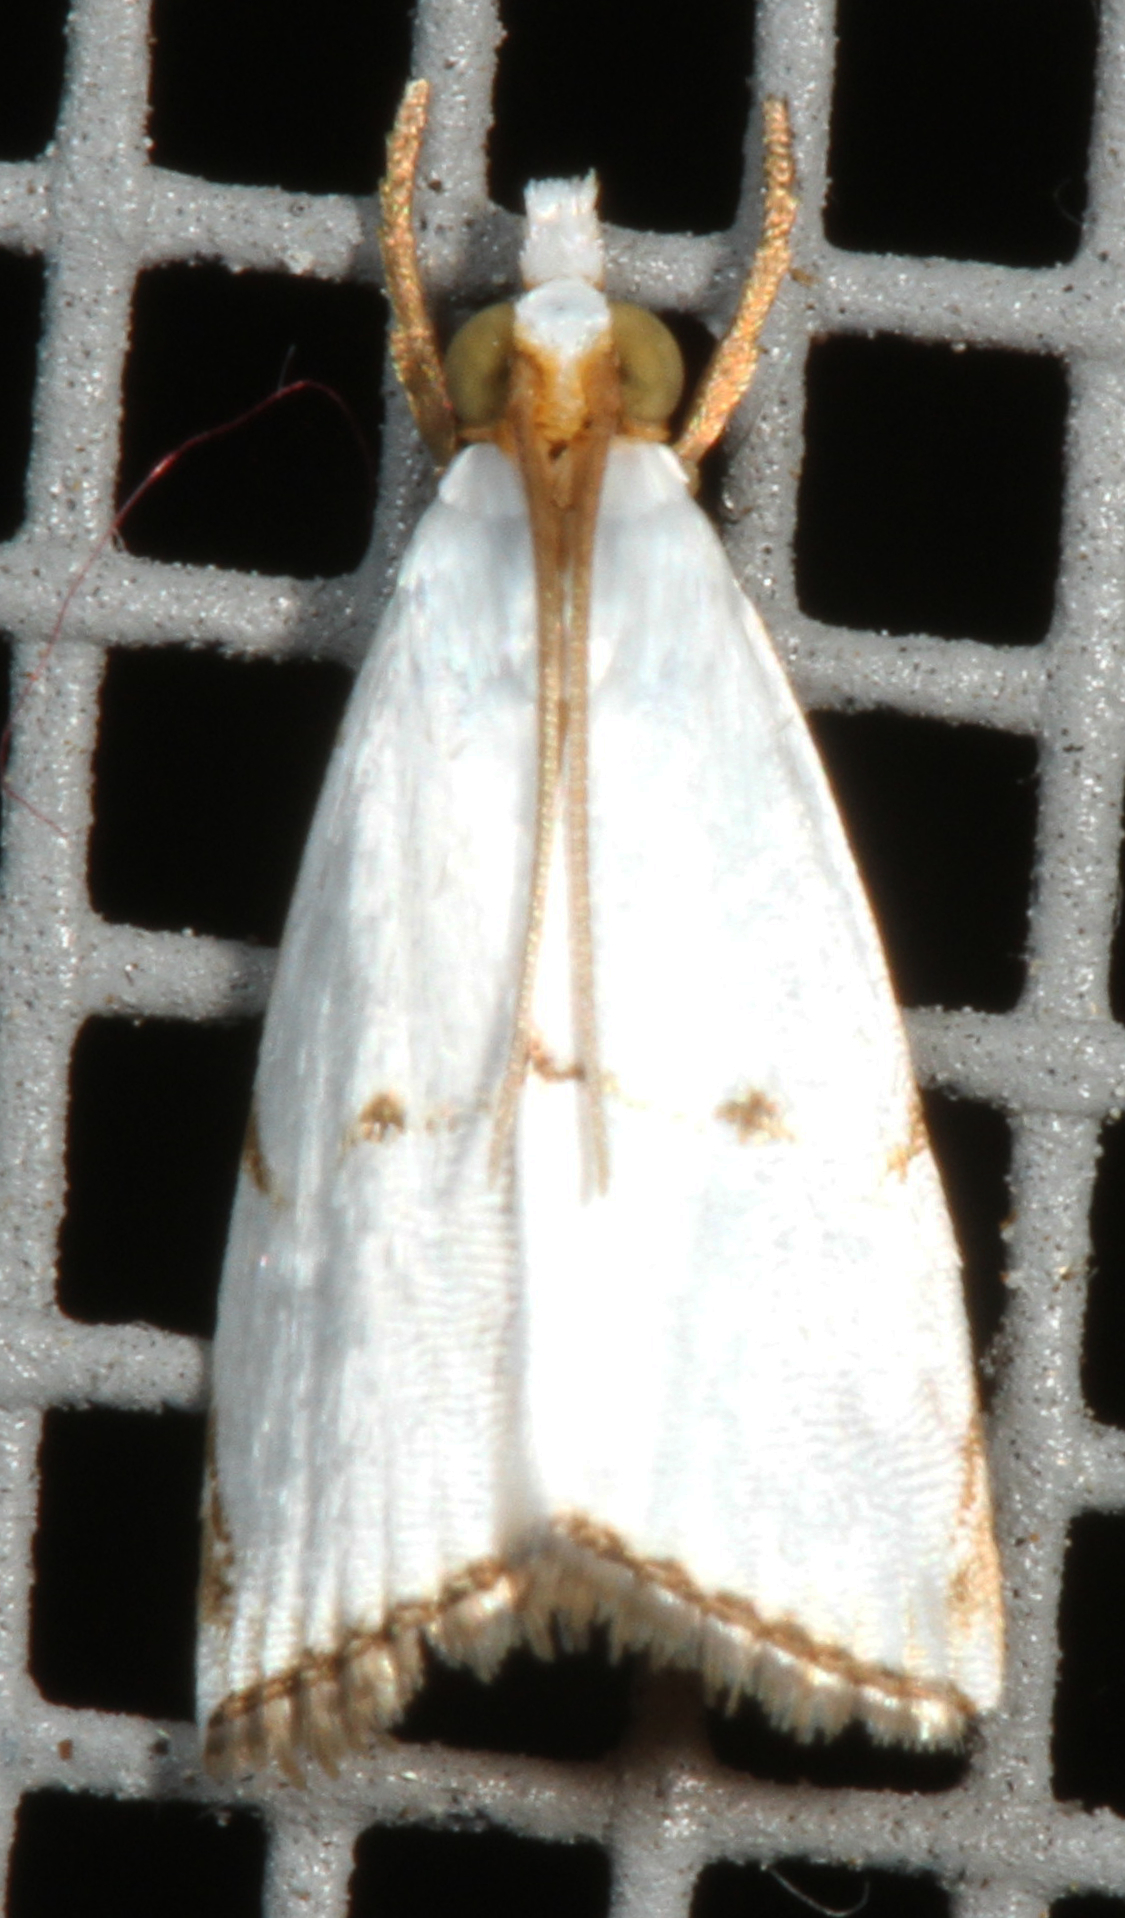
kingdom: Animalia
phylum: Arthropoda
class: Insecta
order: Lepidoptera
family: Crambidae
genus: Argyria
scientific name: Argyria pusillalis
